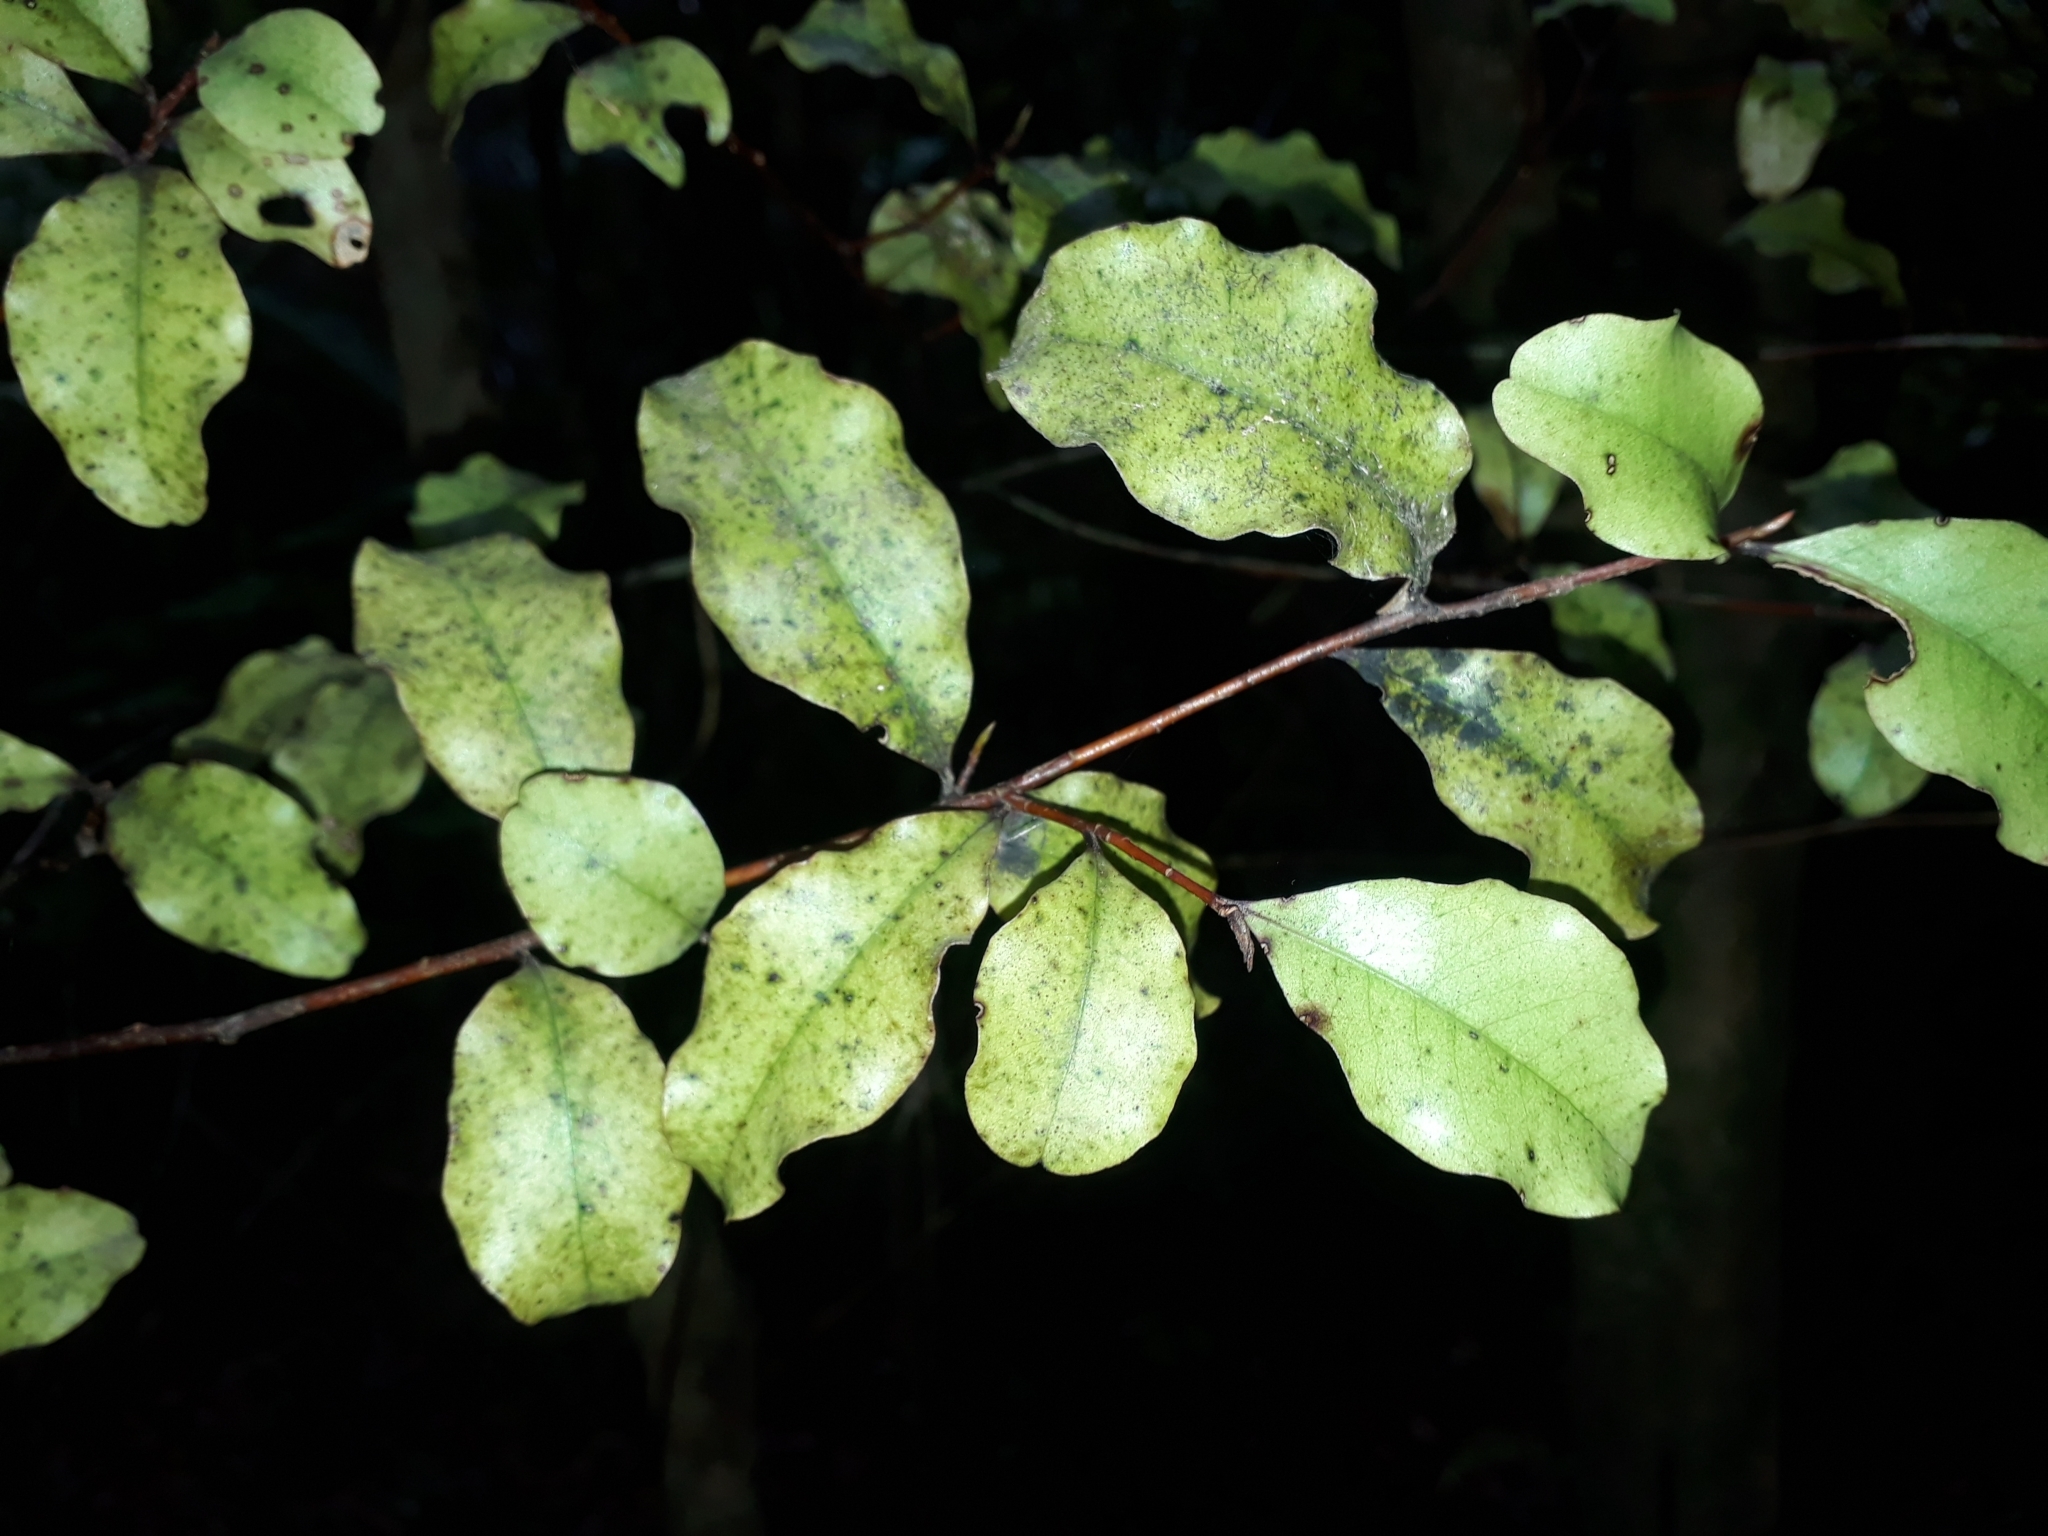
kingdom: Plantae
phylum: Tracheophyta
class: Magnoliopsida
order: Ericales
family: Primulaceae
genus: Myrsine
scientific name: Myrsine australis
